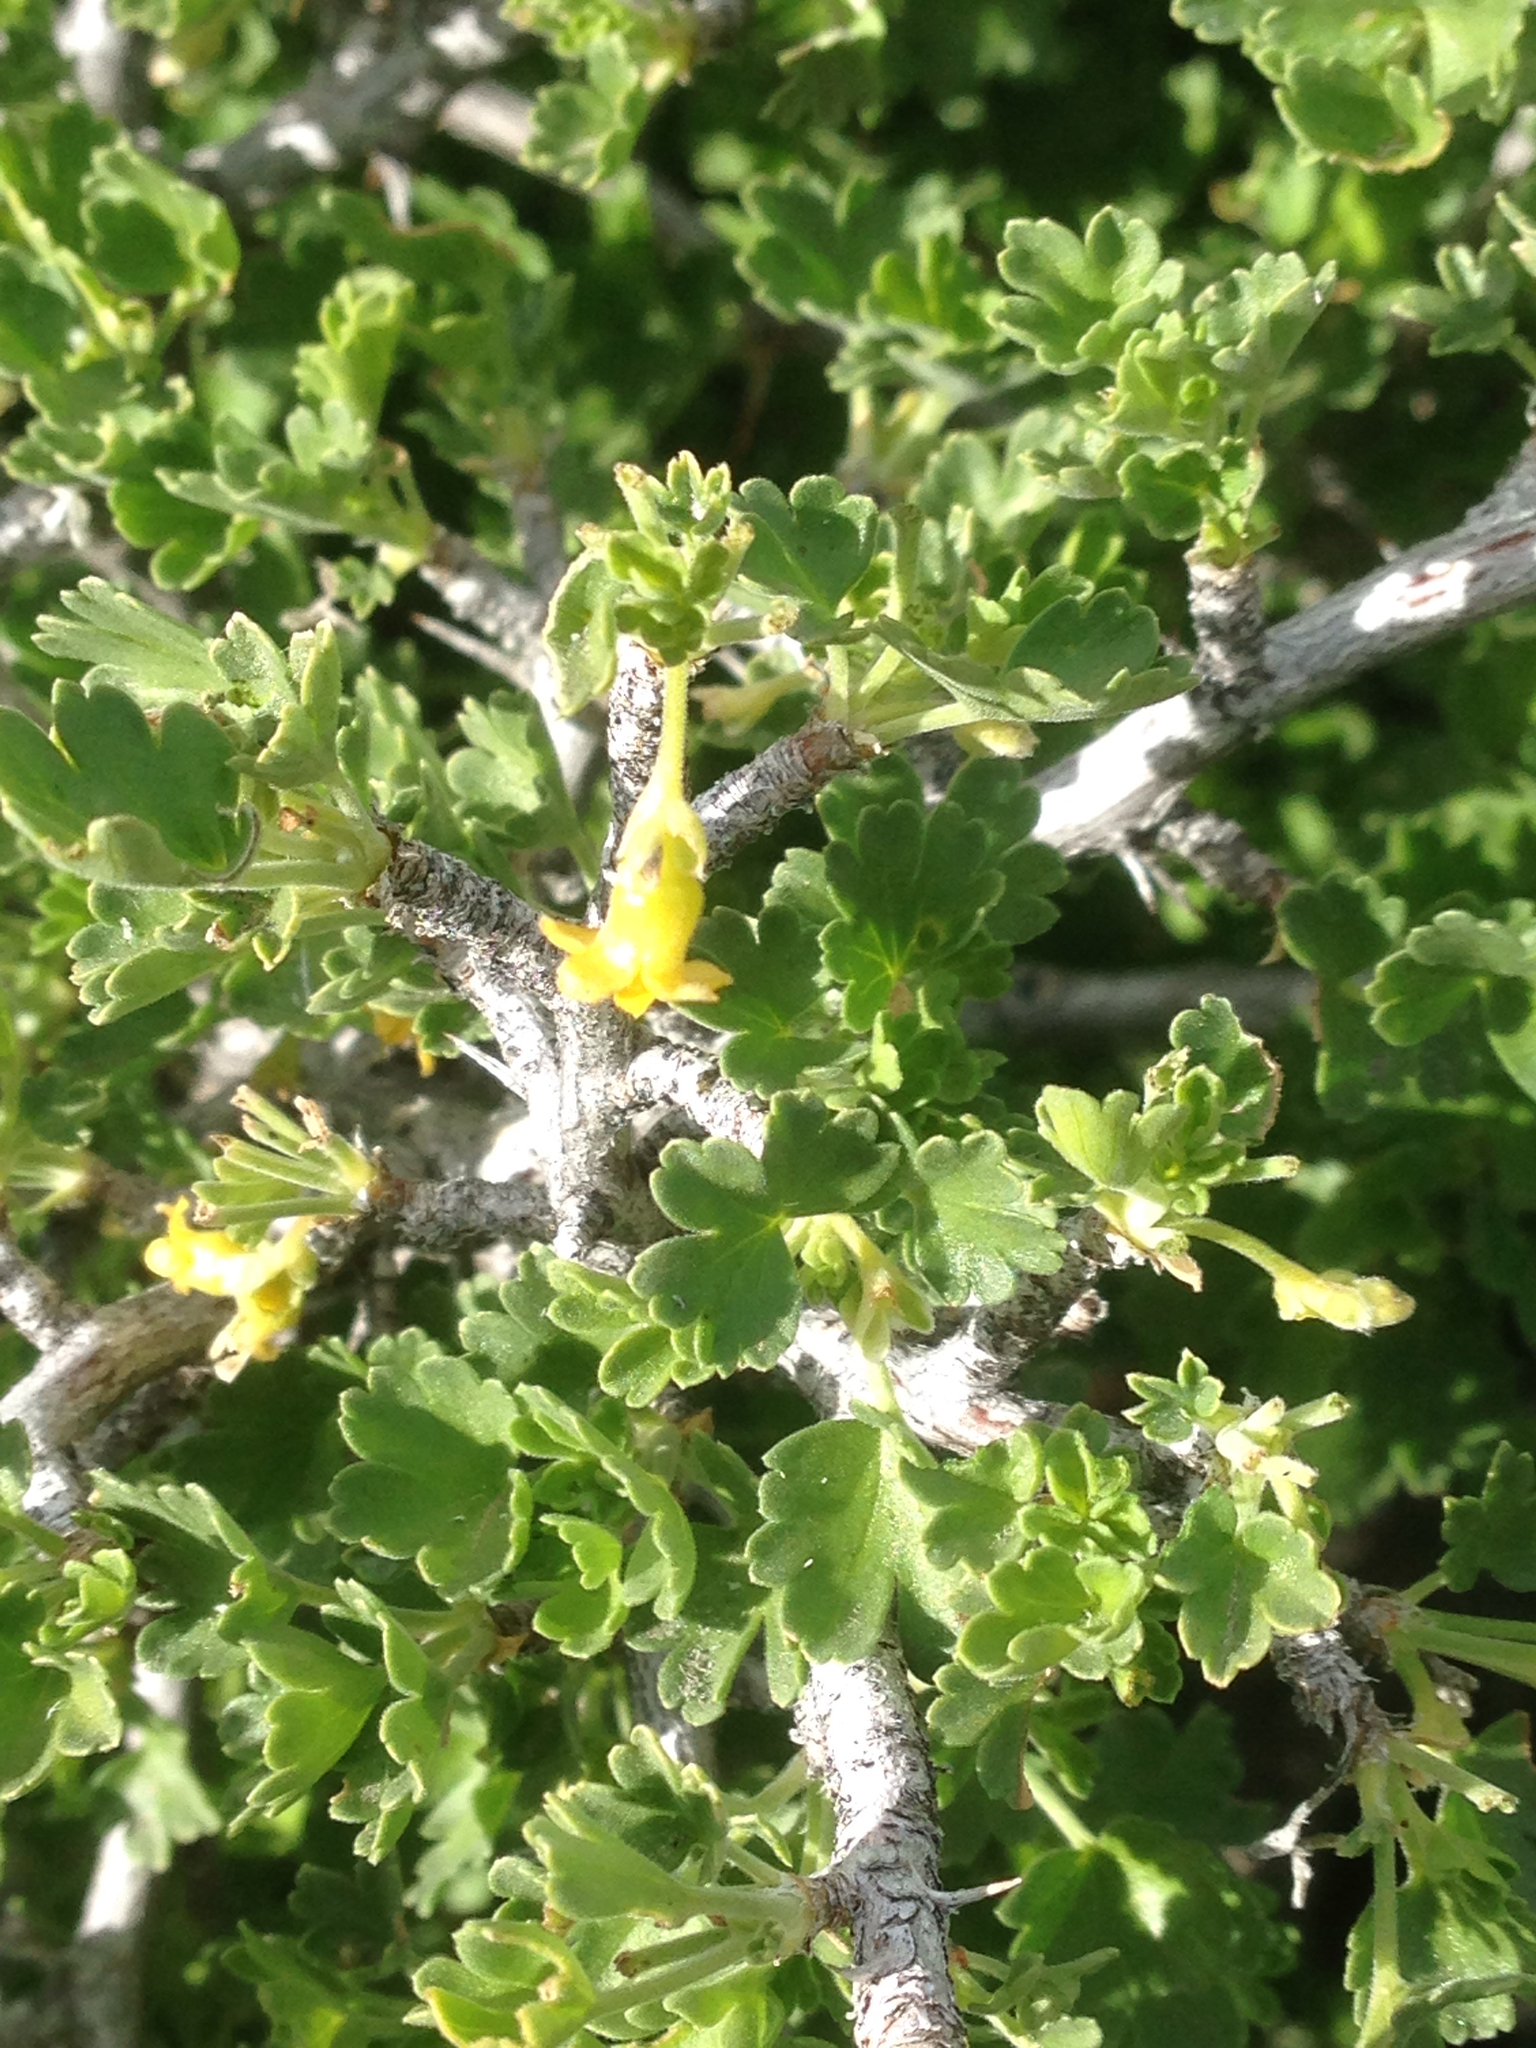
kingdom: Plantae
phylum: Tracheophyta
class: Magnoliopsida
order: Saxifragales
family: Grossulariaceae
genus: Ribes
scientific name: Ribes quercetorum
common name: Oak gooseberry
